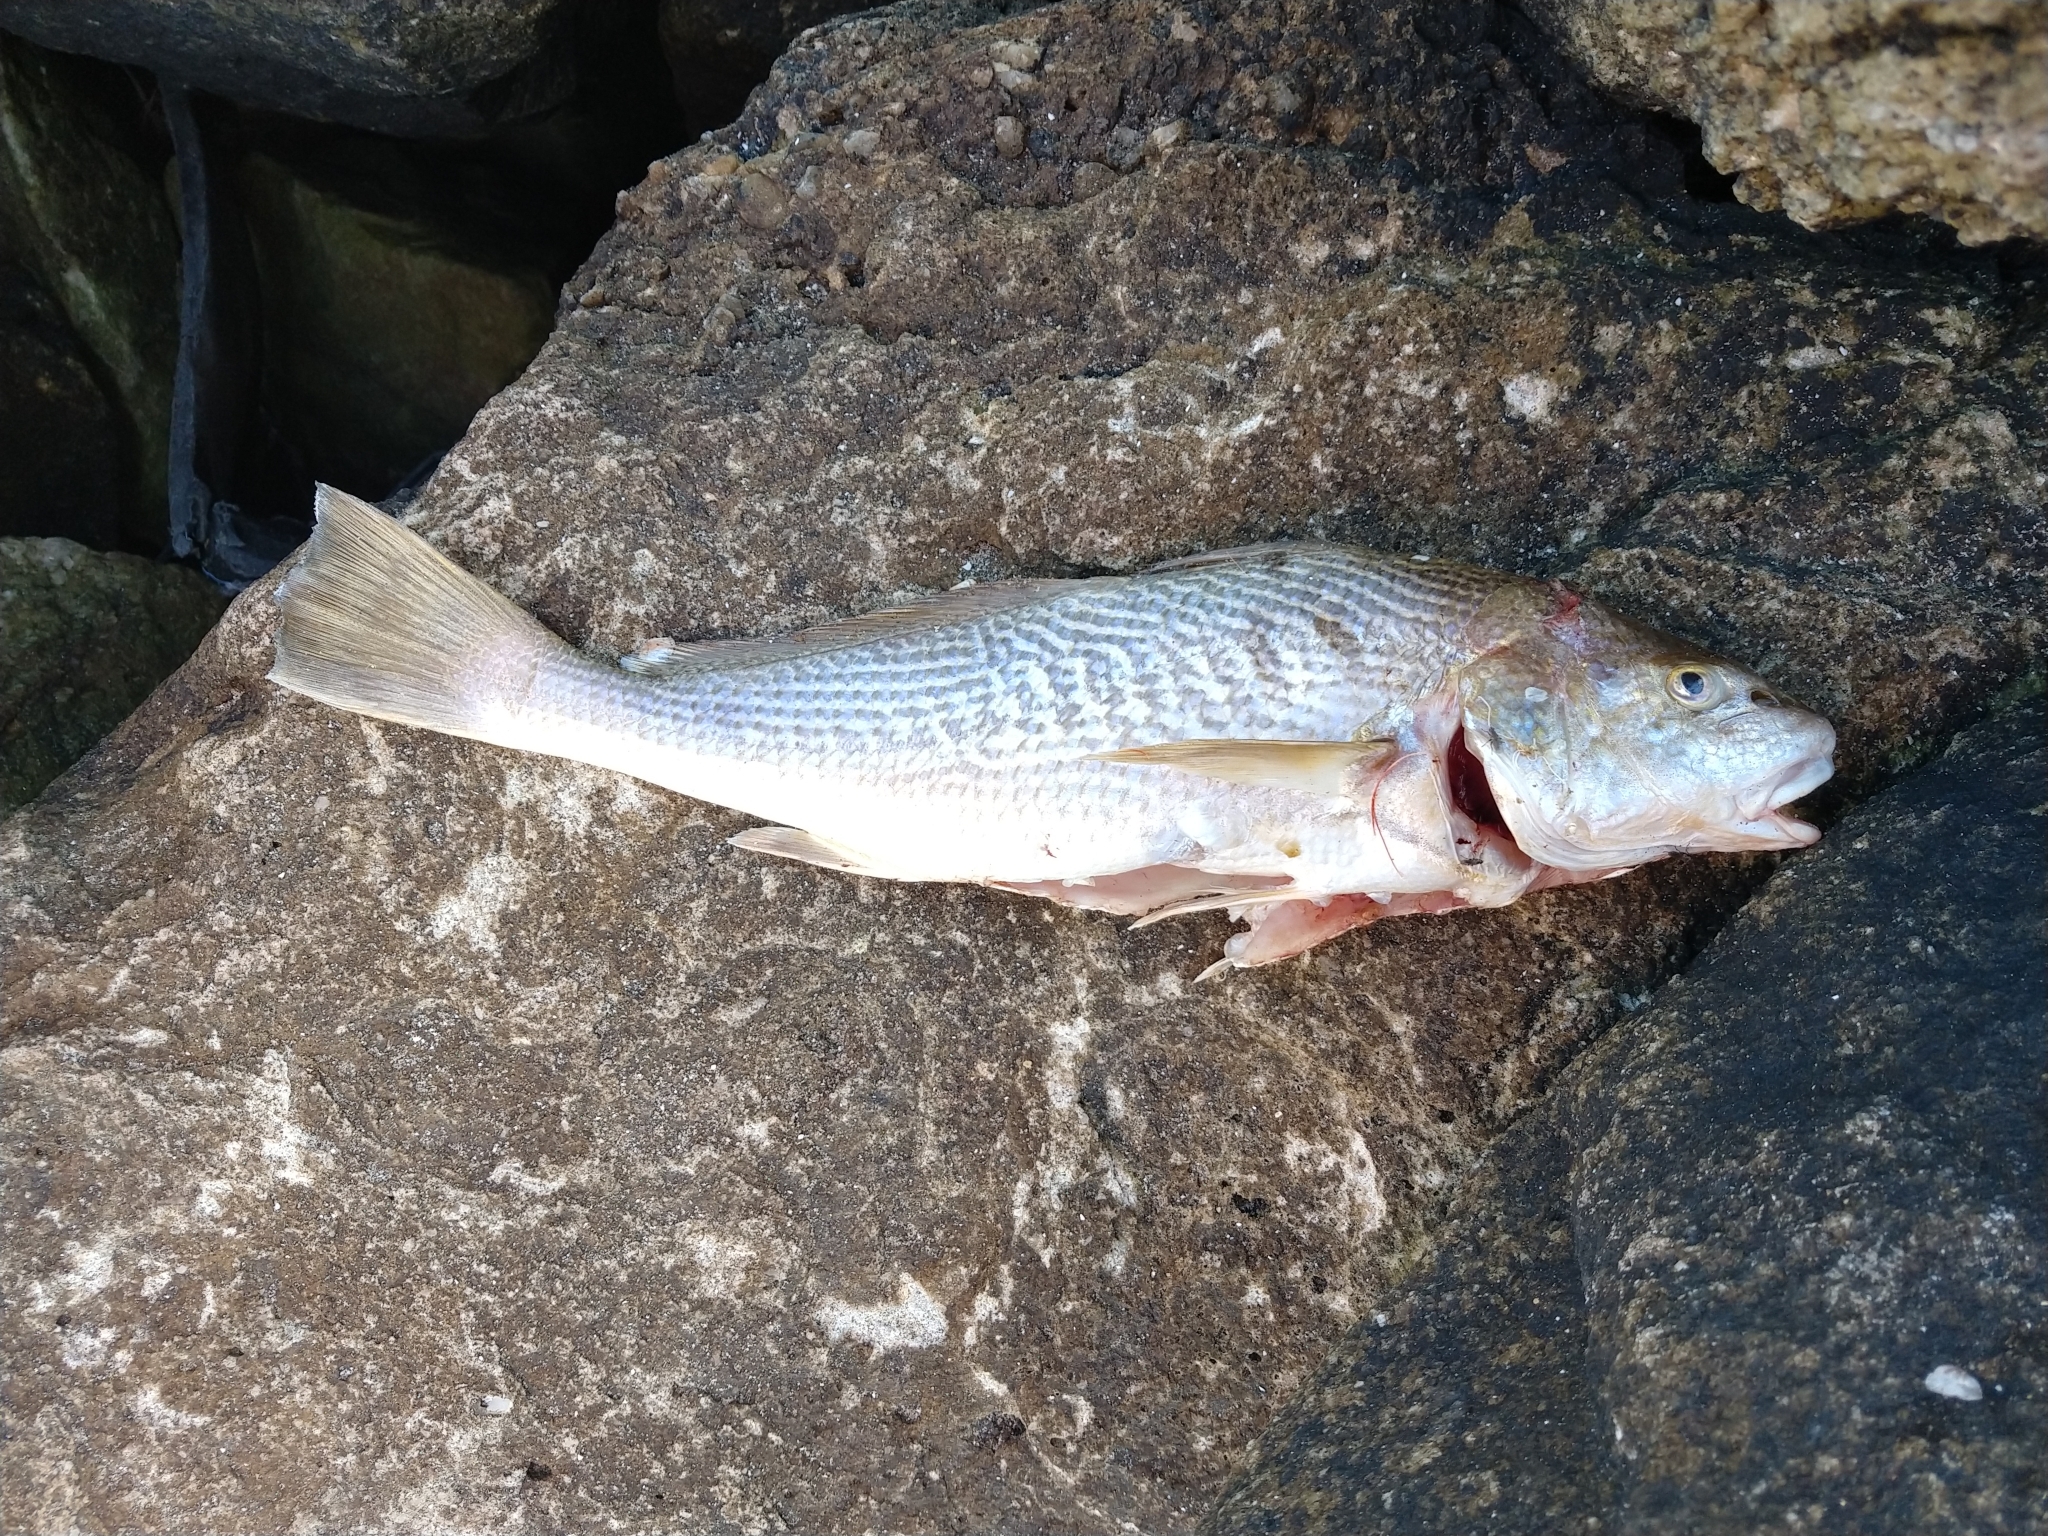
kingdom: Animalia
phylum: Chordata
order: Perciformes
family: Sciaenidae
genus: Micropogonias
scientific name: Micropogonias furnieri
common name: Whitemouth croaker
